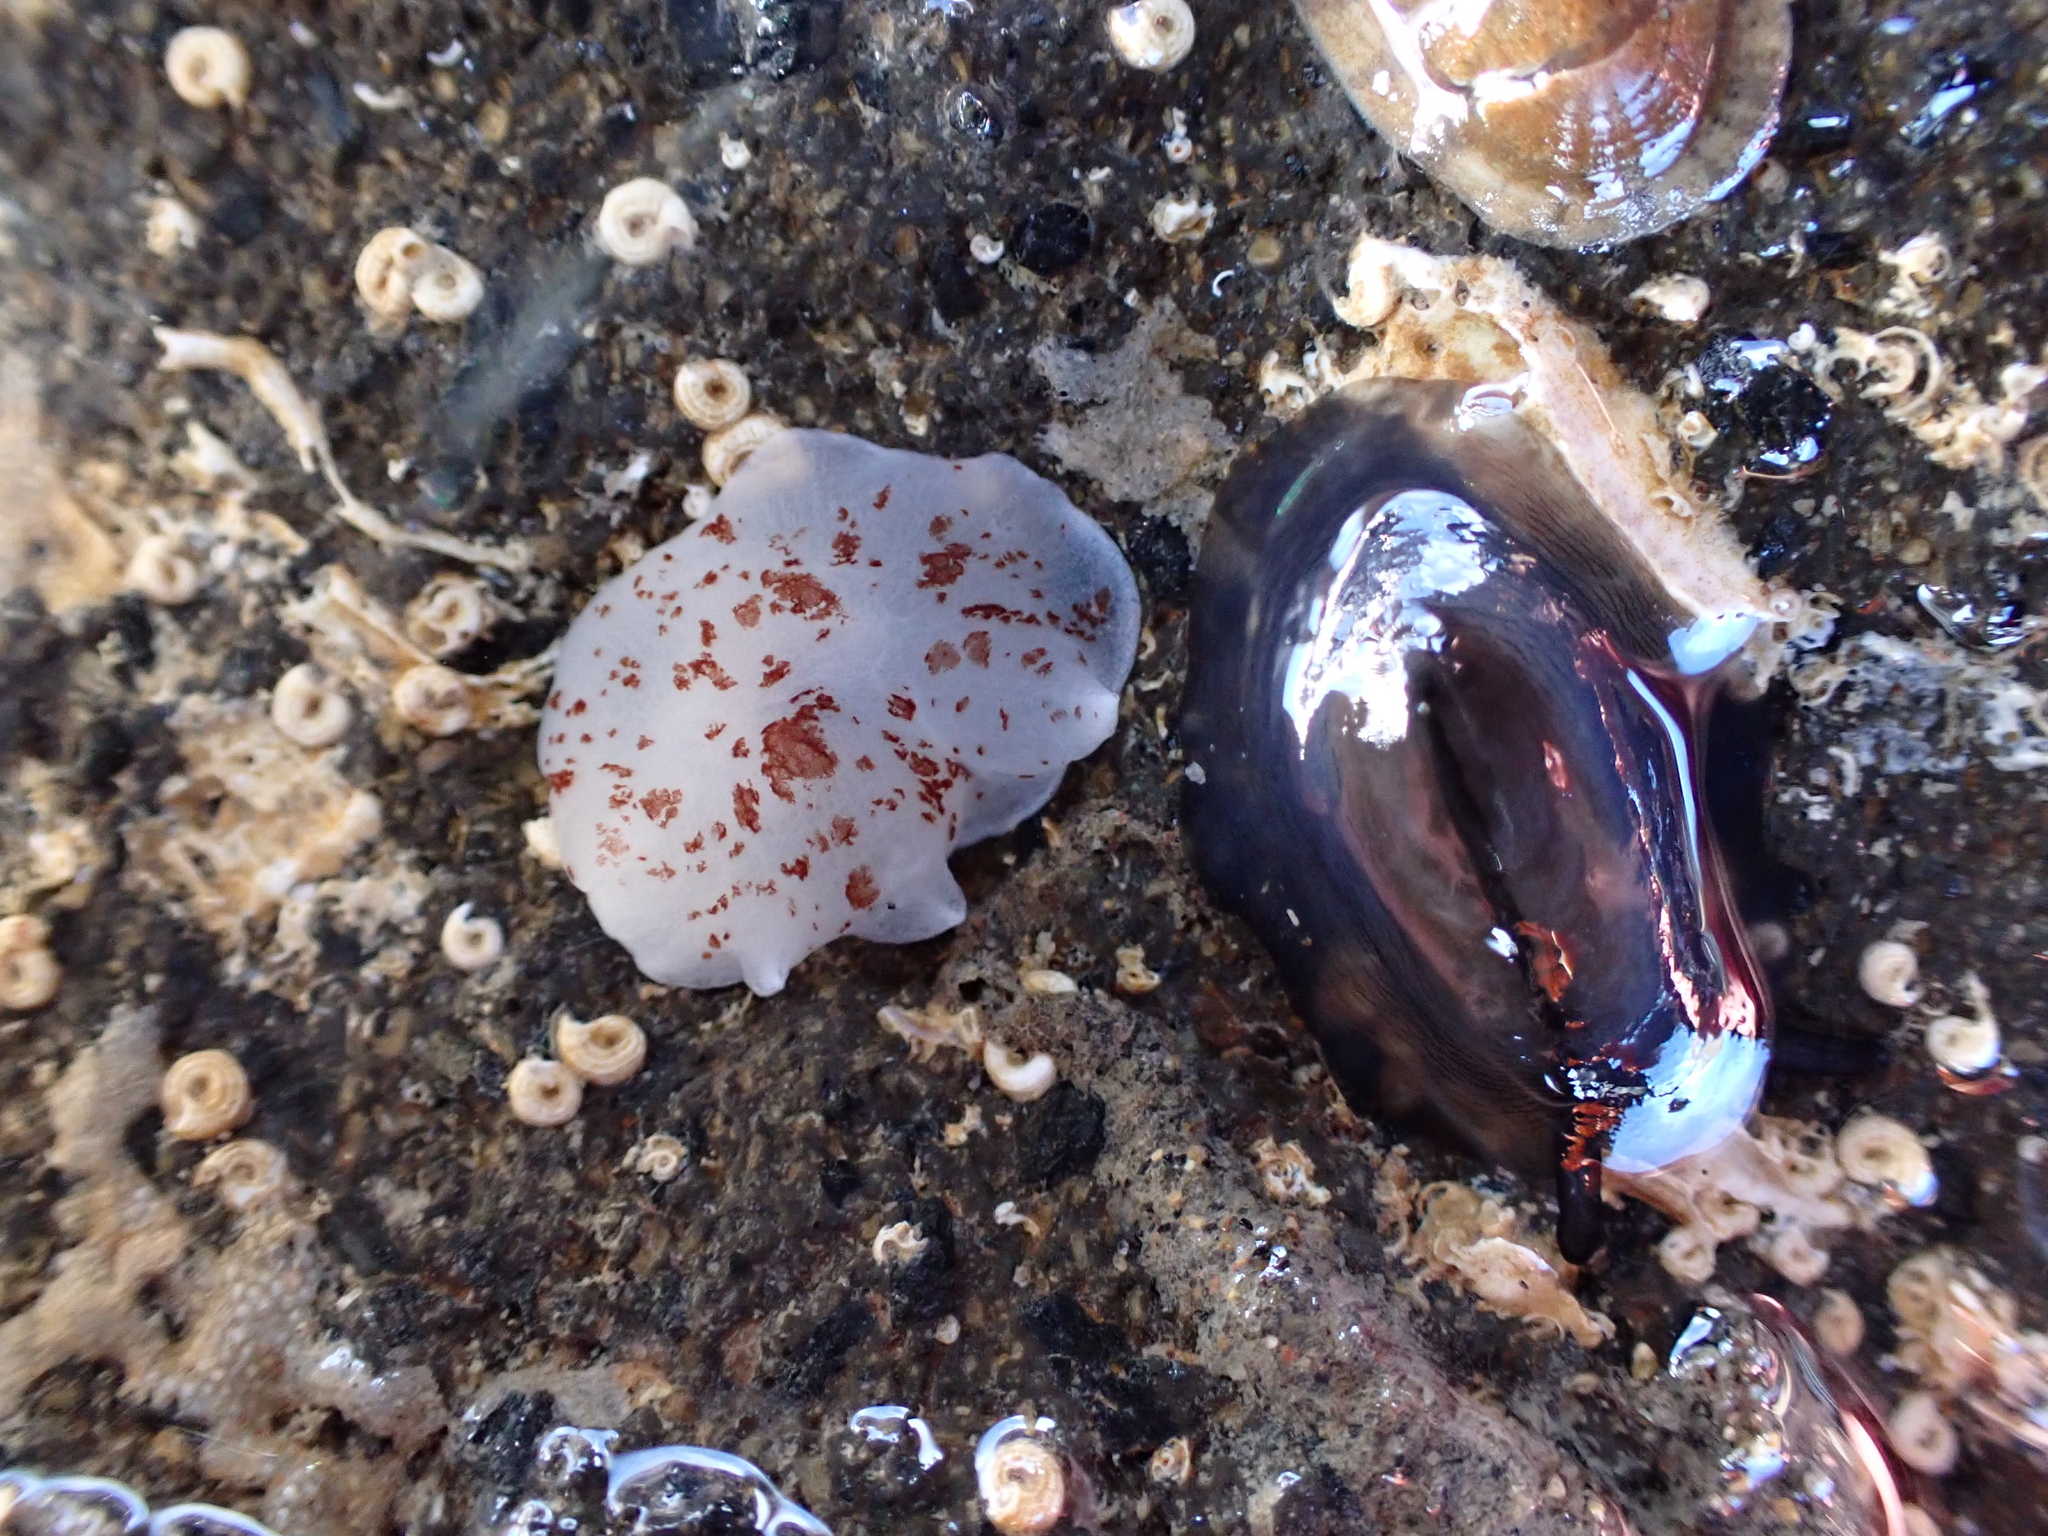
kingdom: Animalia
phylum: Mollusca
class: Gastropoda
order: Pleurobranchida
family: Pleurobranchidae
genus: Berthella
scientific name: Berthella ornata
